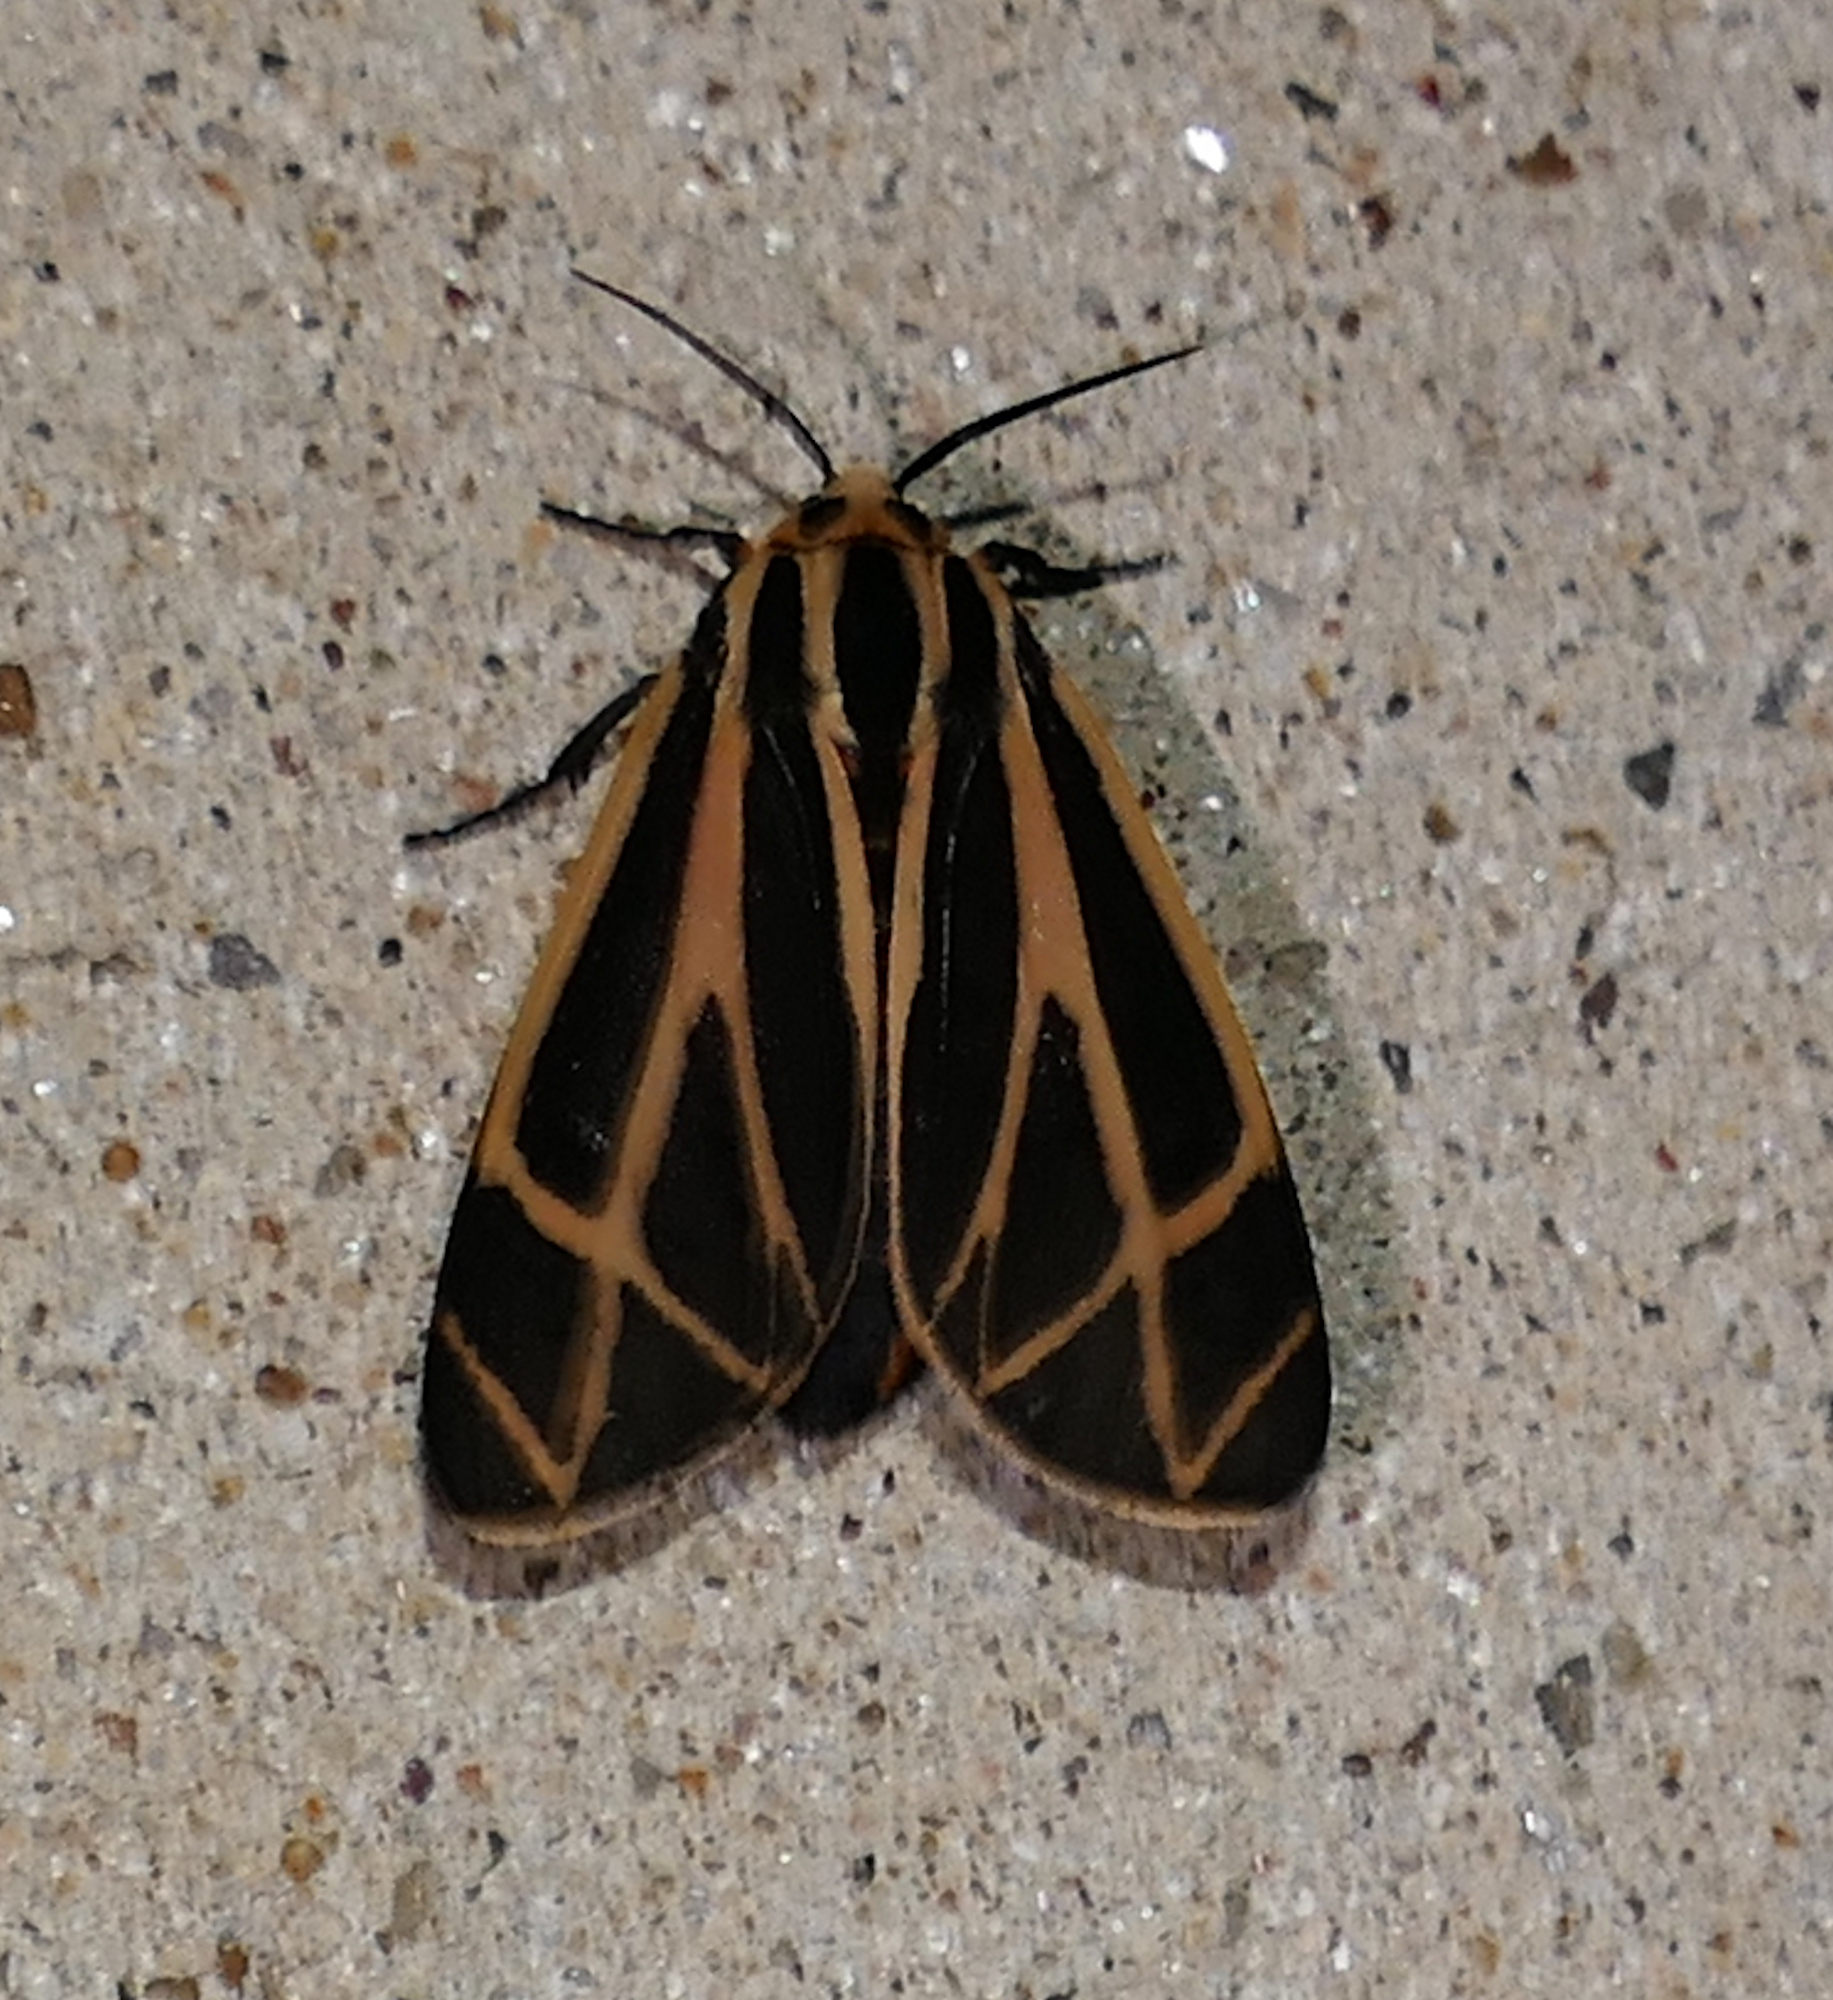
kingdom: Animalia
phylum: Arthropoda
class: Insecta
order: Lepidoptera
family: Erebidae
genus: Apantesis
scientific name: Apantesis phalerata
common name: Harnessed tiger moth
